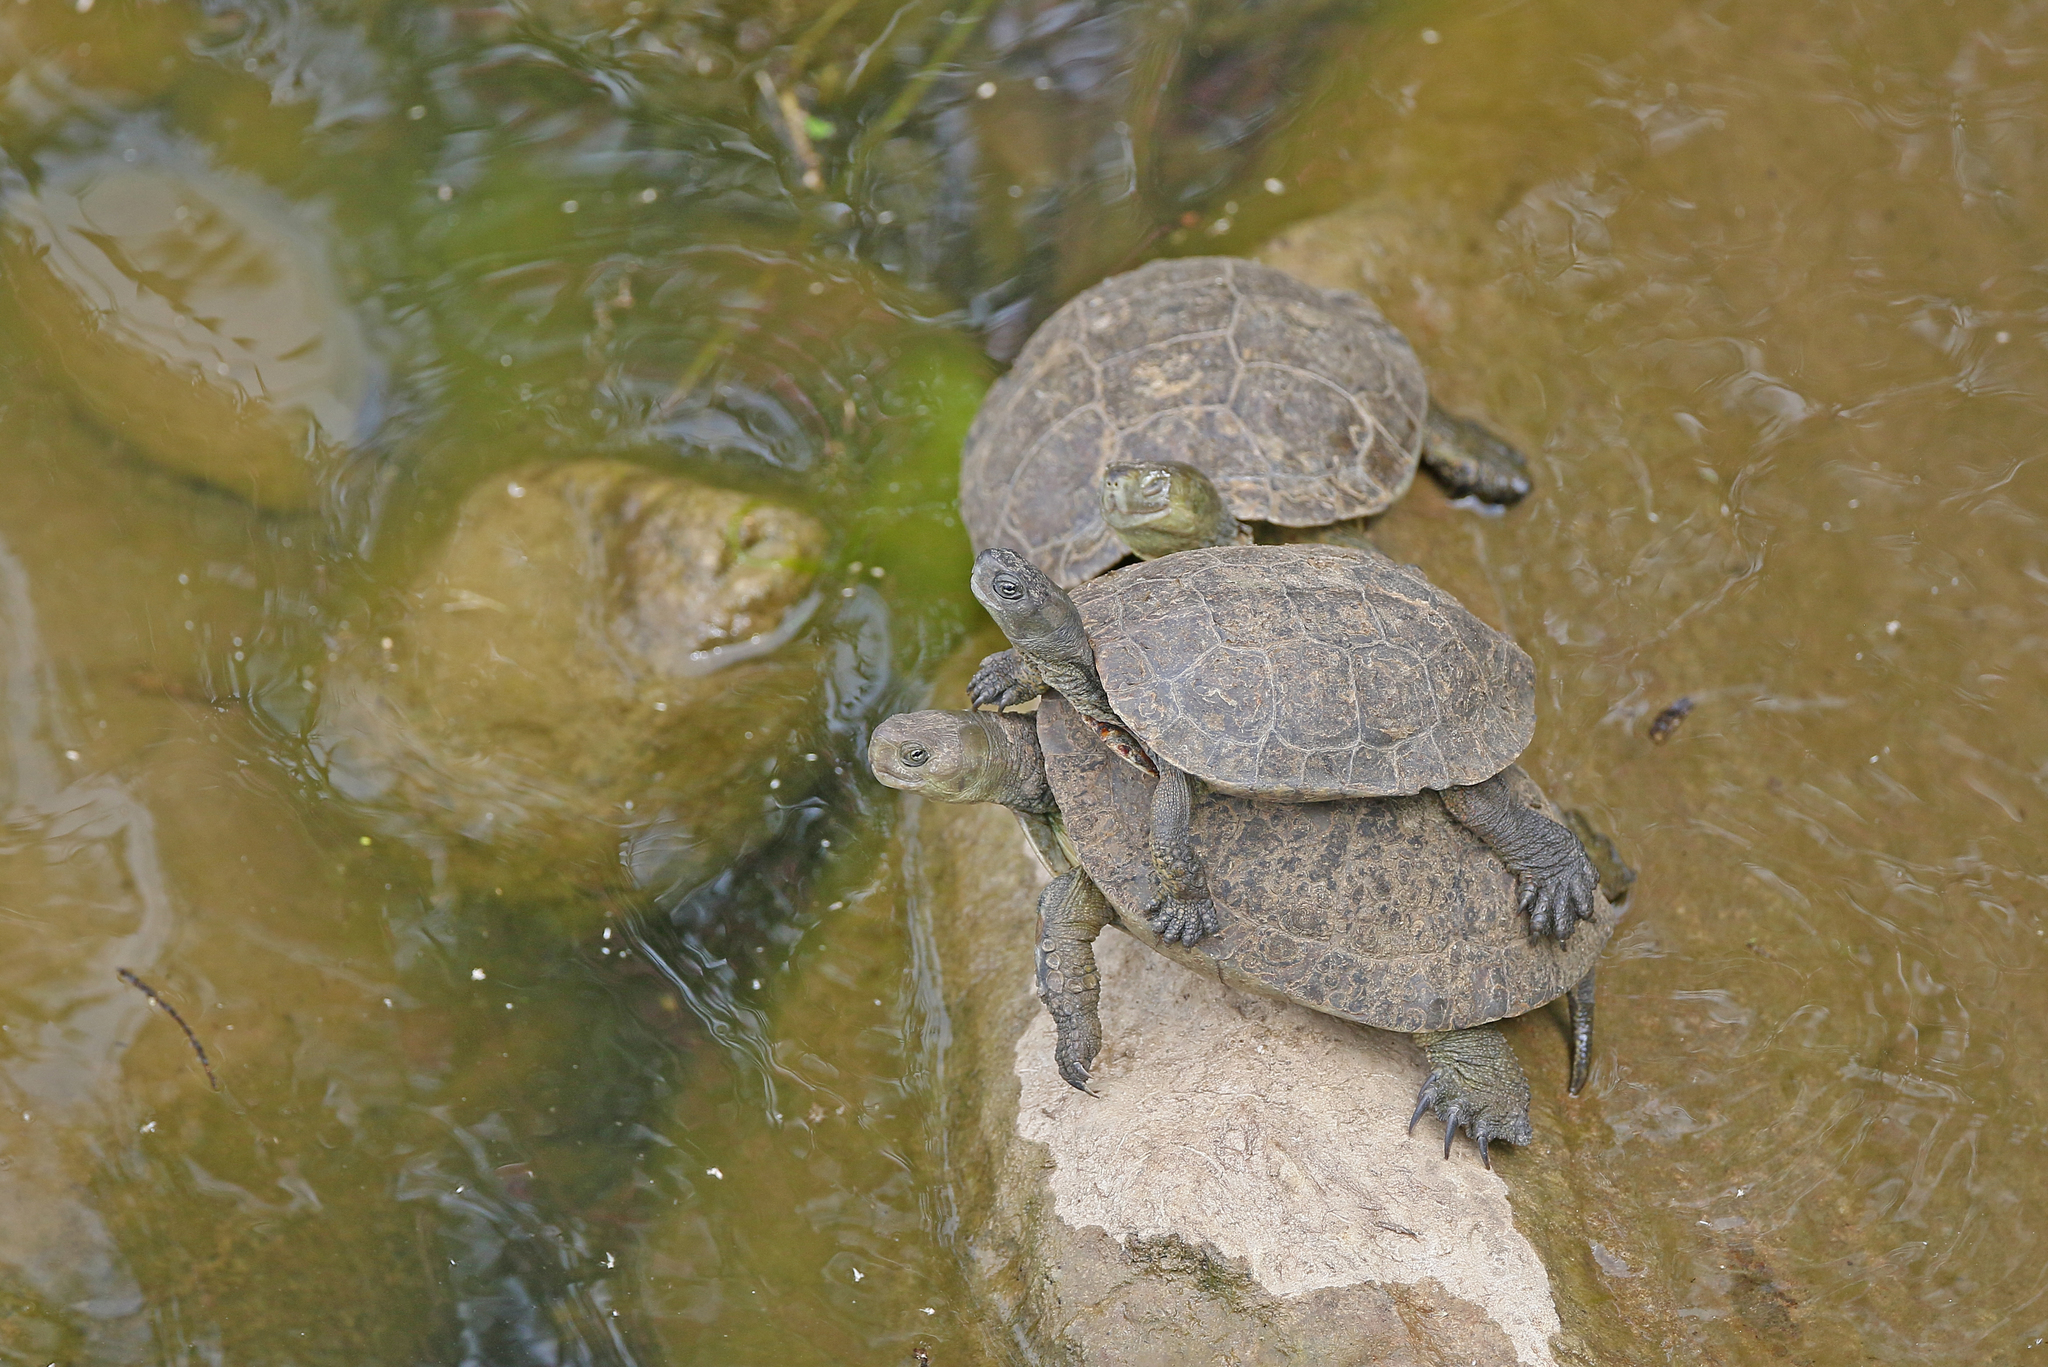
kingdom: Animalia
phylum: Chordata
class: Testudines
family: Geoemydidae
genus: Mauremys
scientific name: Mauremys leprosa
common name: Mediterranean pond turtle
